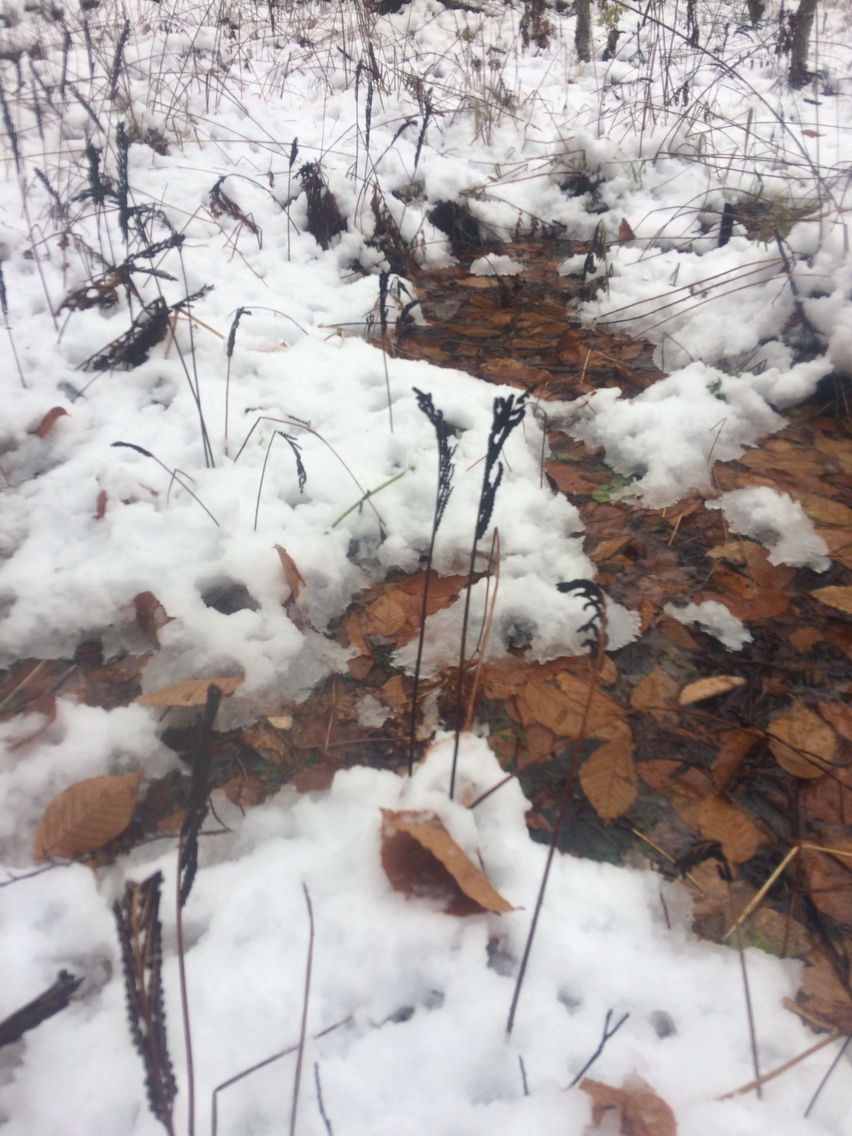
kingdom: Plantae
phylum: Tracheophyta
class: Polypodiopsida
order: Polypodiales
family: Onocleaceae
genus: Onoclea
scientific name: Onoclea sensibilis
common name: Sensitive fern
